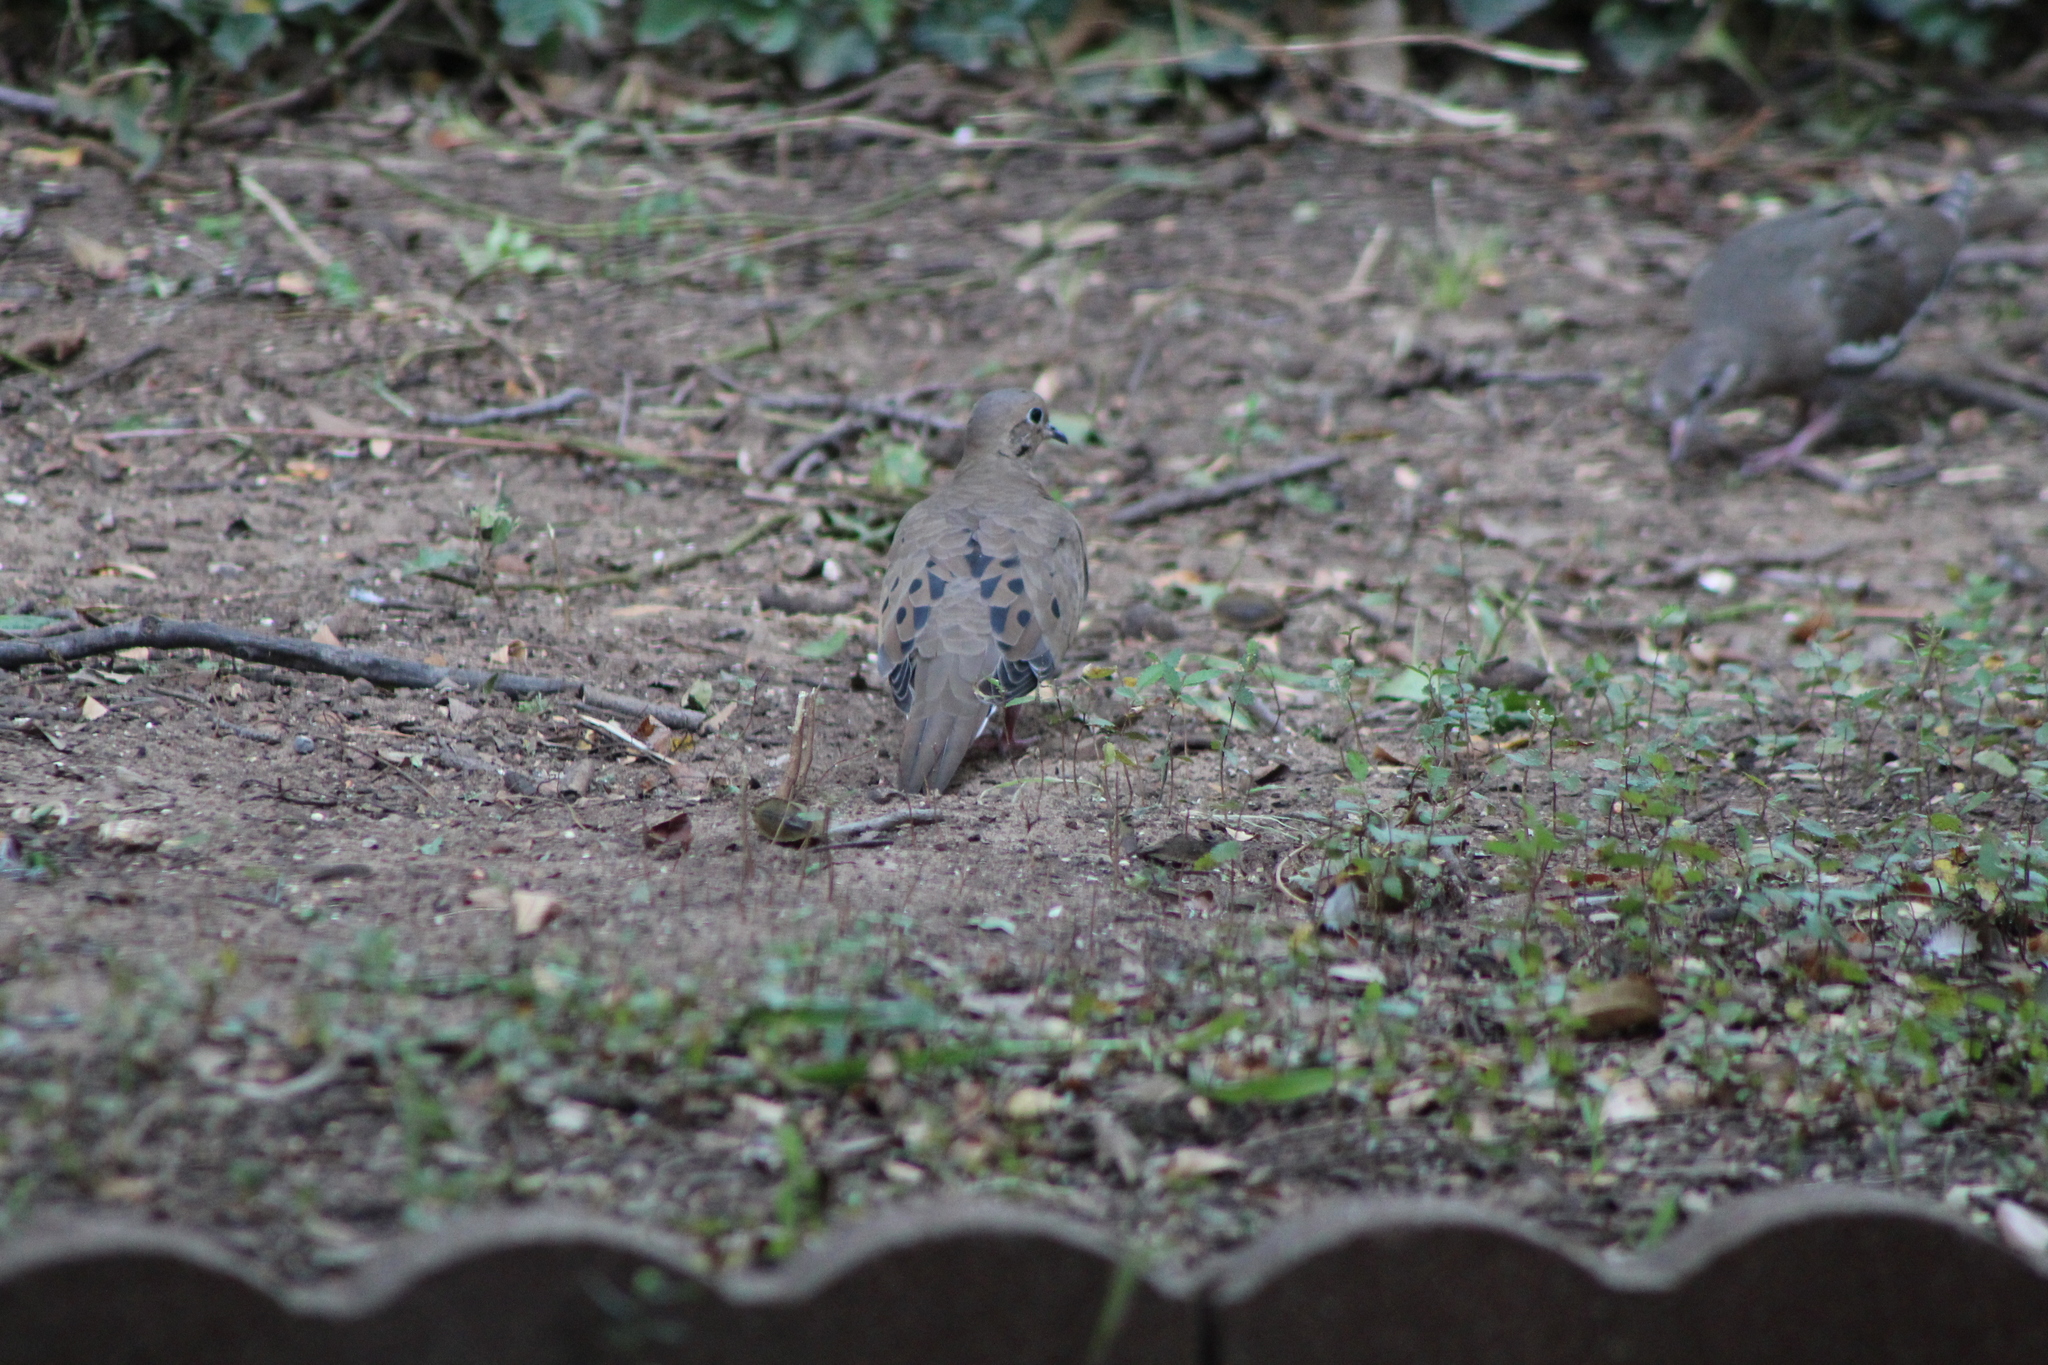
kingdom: Animalia
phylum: Chordata
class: Aves
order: Columbiformes
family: Columbidae
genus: Zenaida
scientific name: Zenaida macroura
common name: Mourning dove
